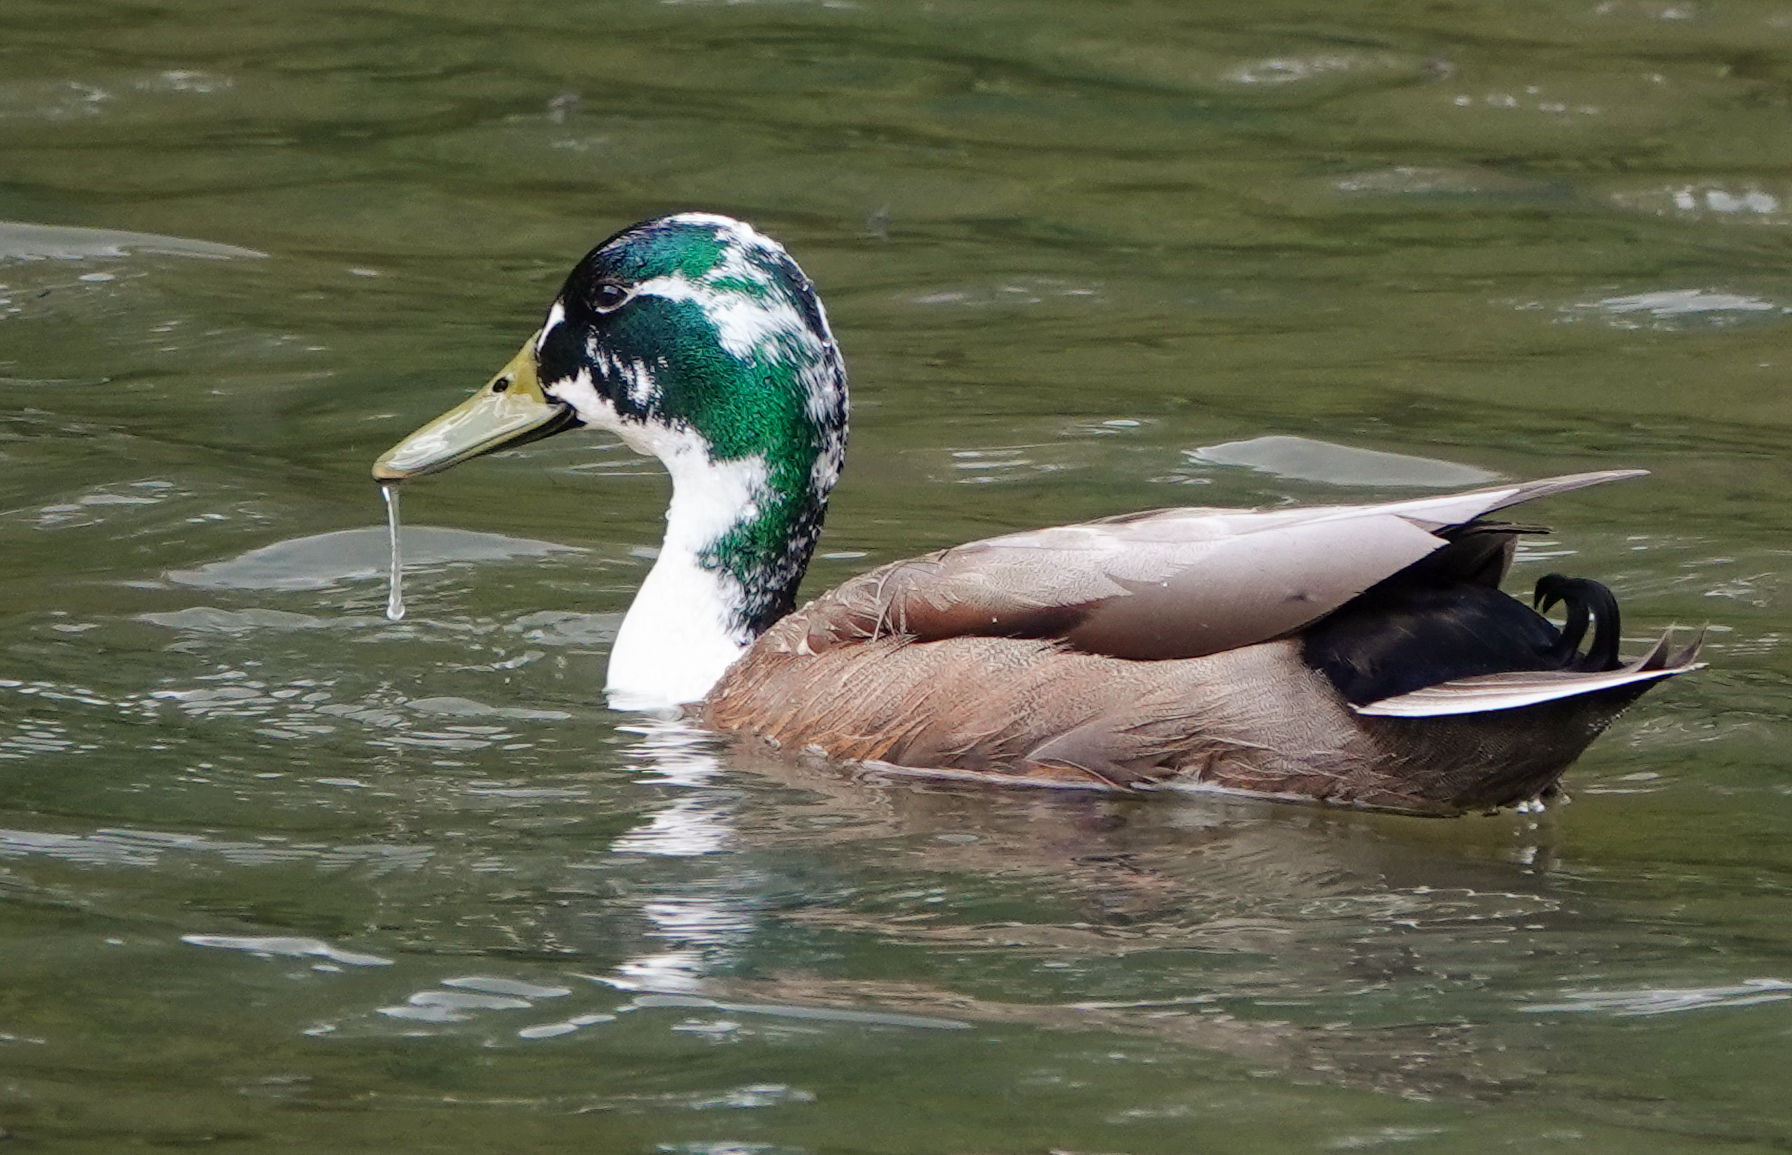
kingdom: Animalia
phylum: Chordata
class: Aves
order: Anseriformes
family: Anatidae
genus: Anas
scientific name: Anas platyrhynchos
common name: Mallard
